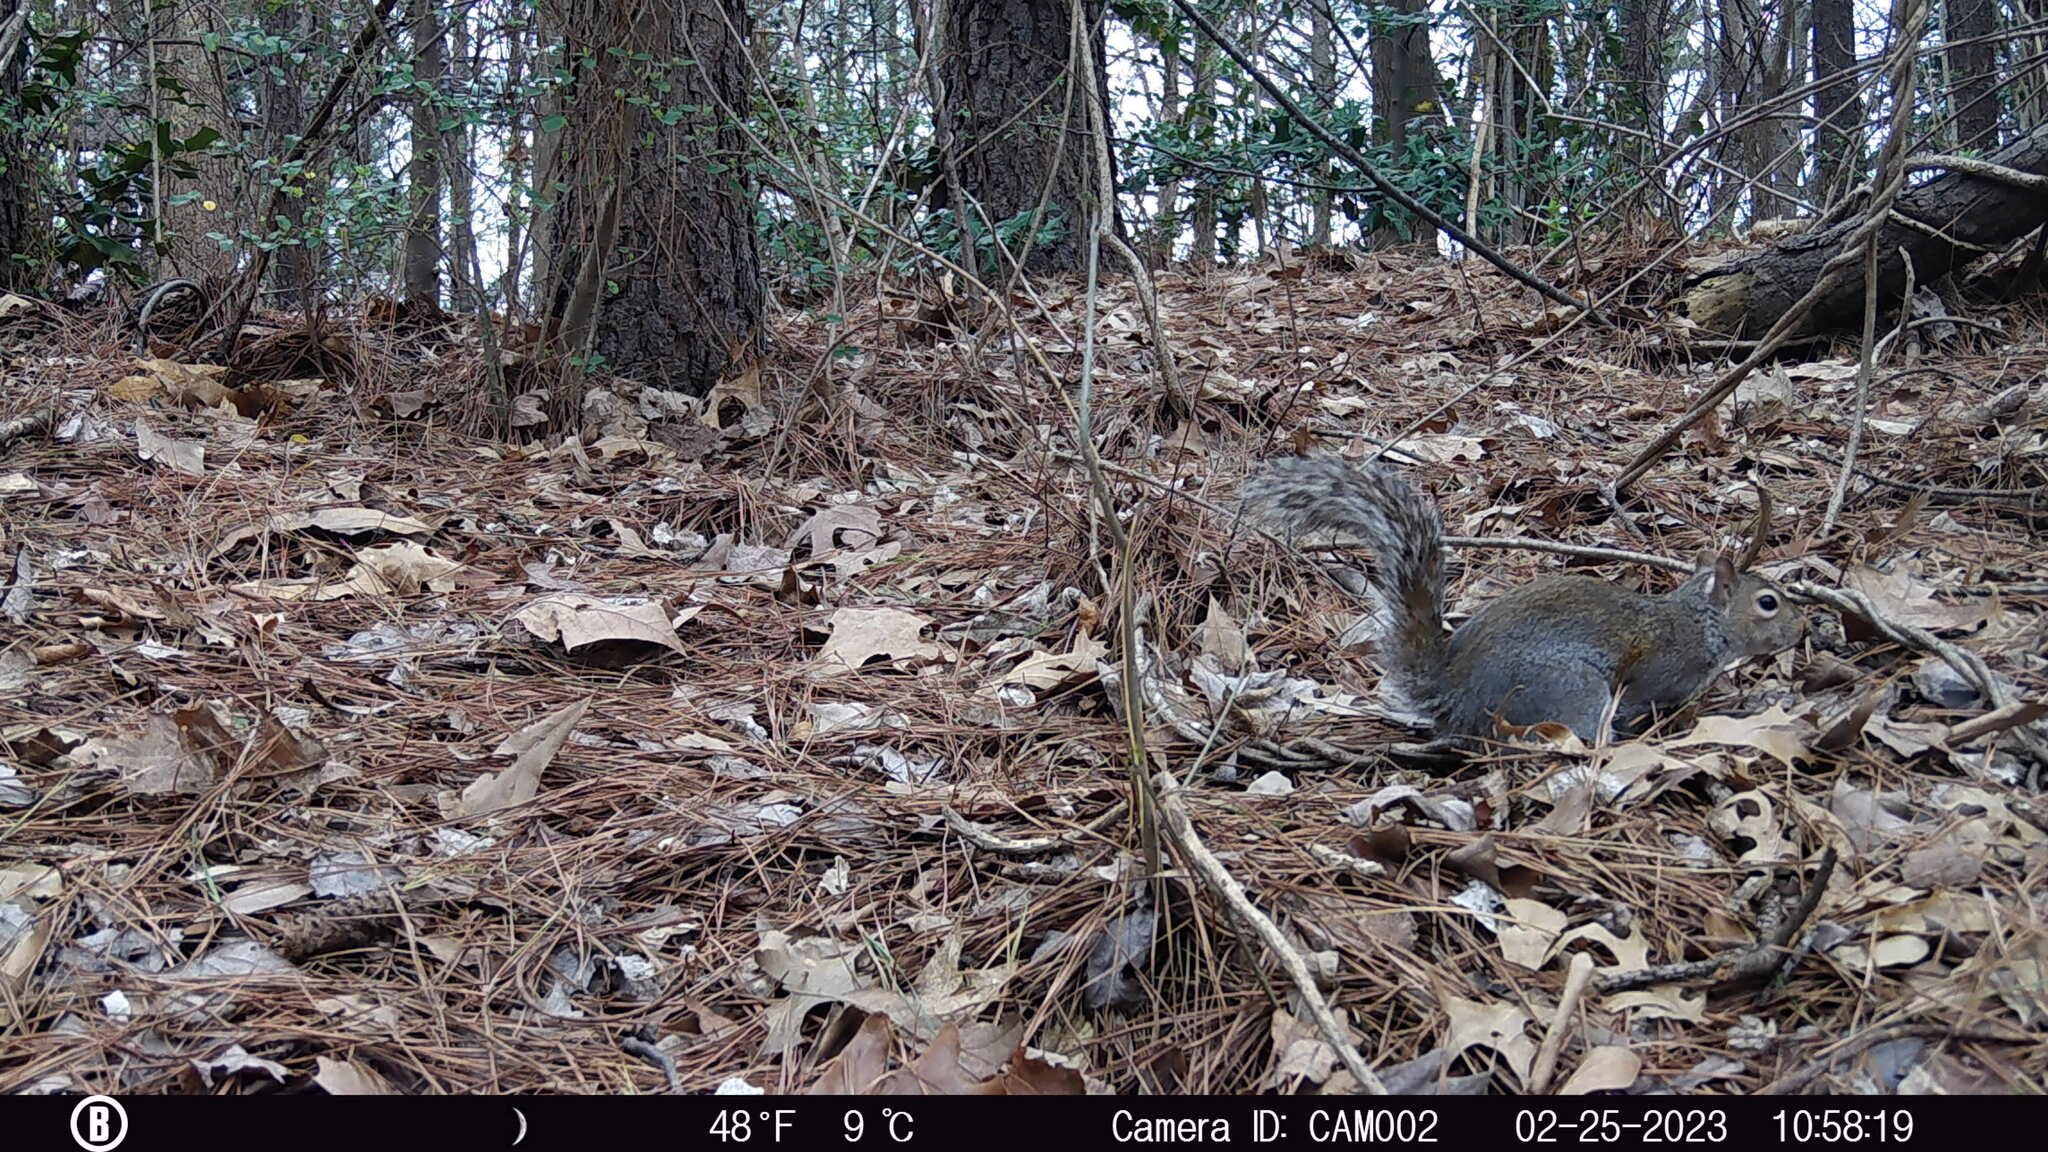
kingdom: Animalia
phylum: Chordata
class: Mammalia
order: Rodentia
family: Sciuridae
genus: Sciurus
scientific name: Sciurus carolinensis
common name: Eastern gray squirrel
